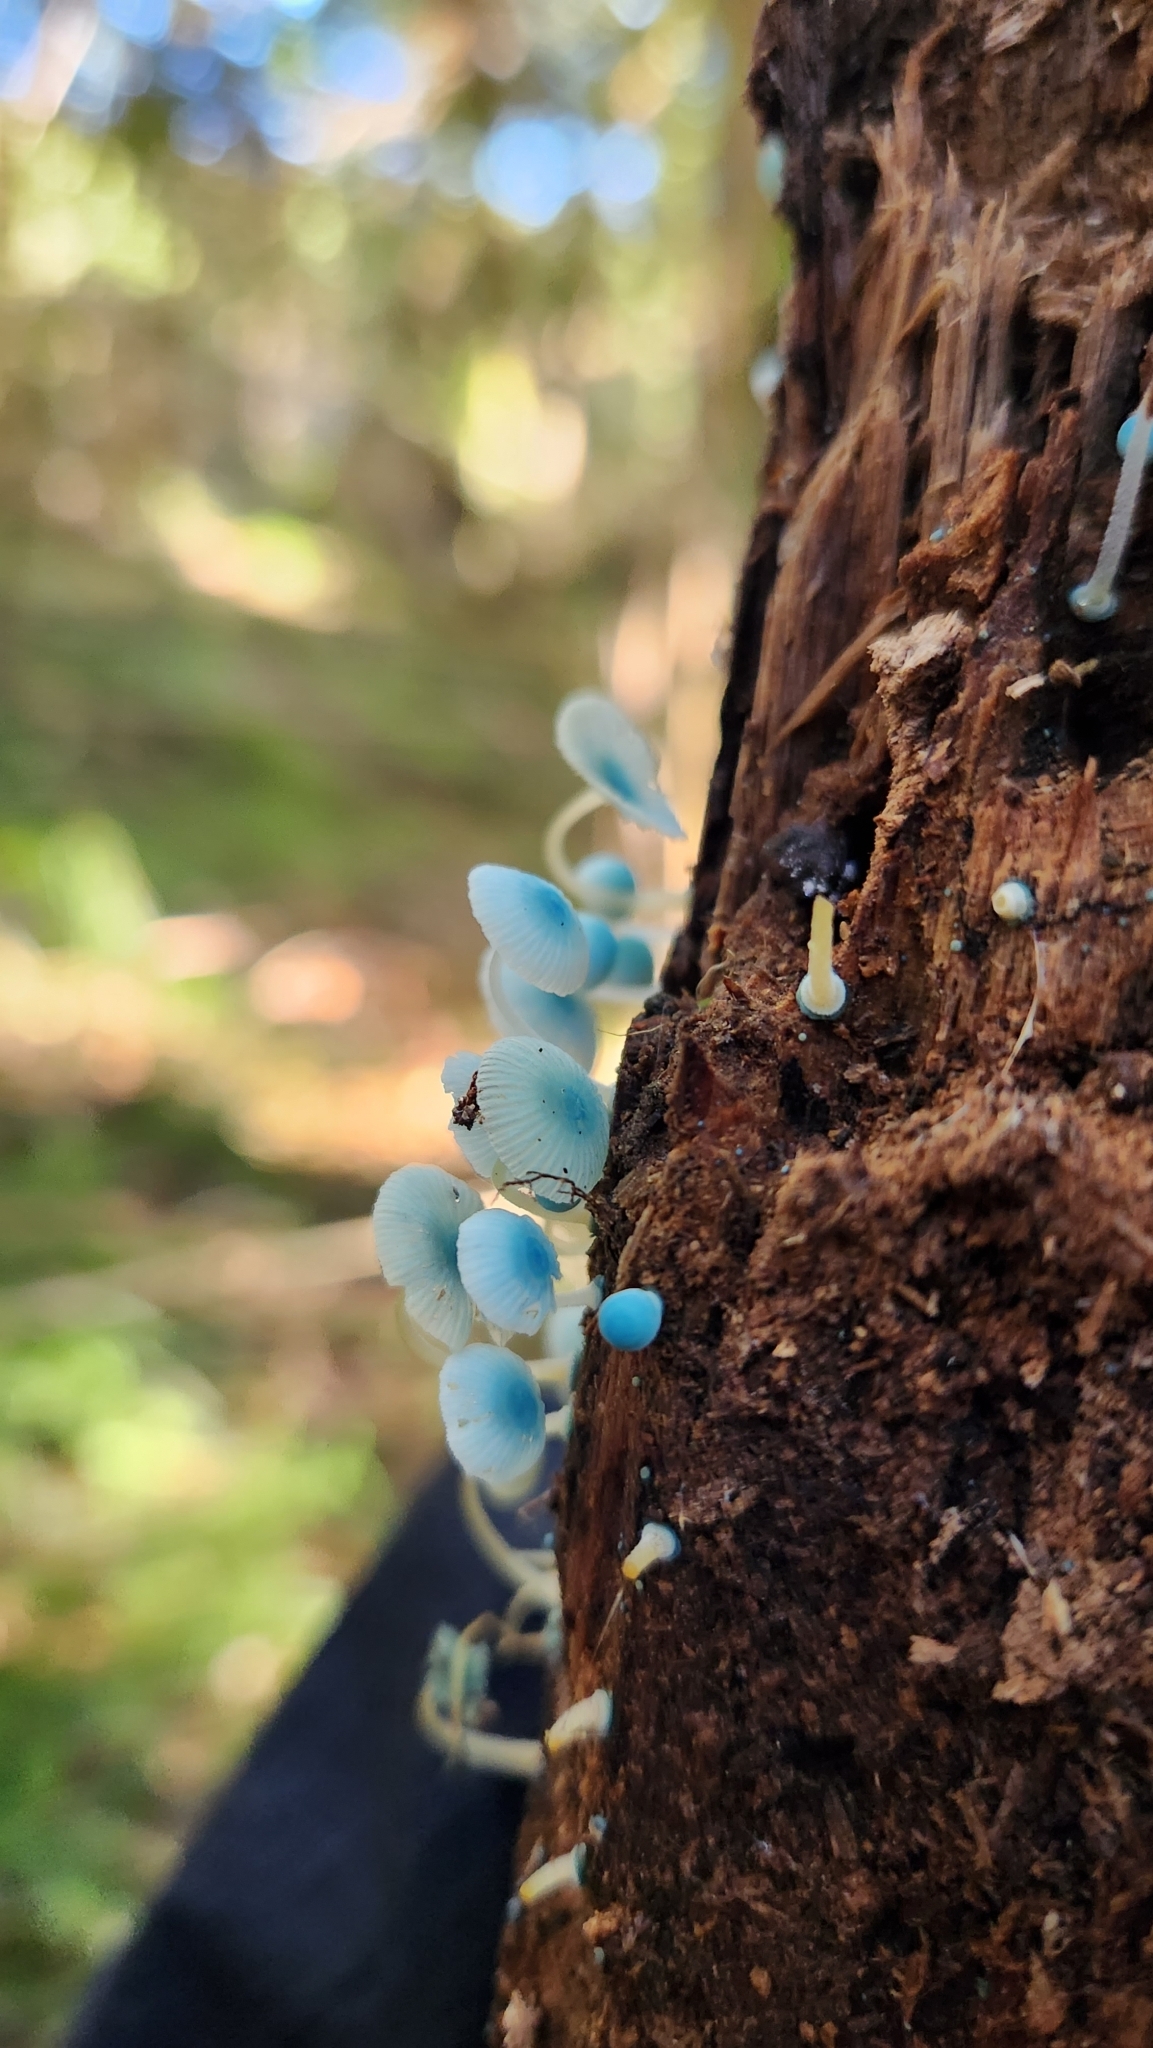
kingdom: Fungi
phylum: Basidiomycota
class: Agaricomycetes
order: Agaricales
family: Mycenaceae
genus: Mycena
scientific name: Mycena cyanocephala
